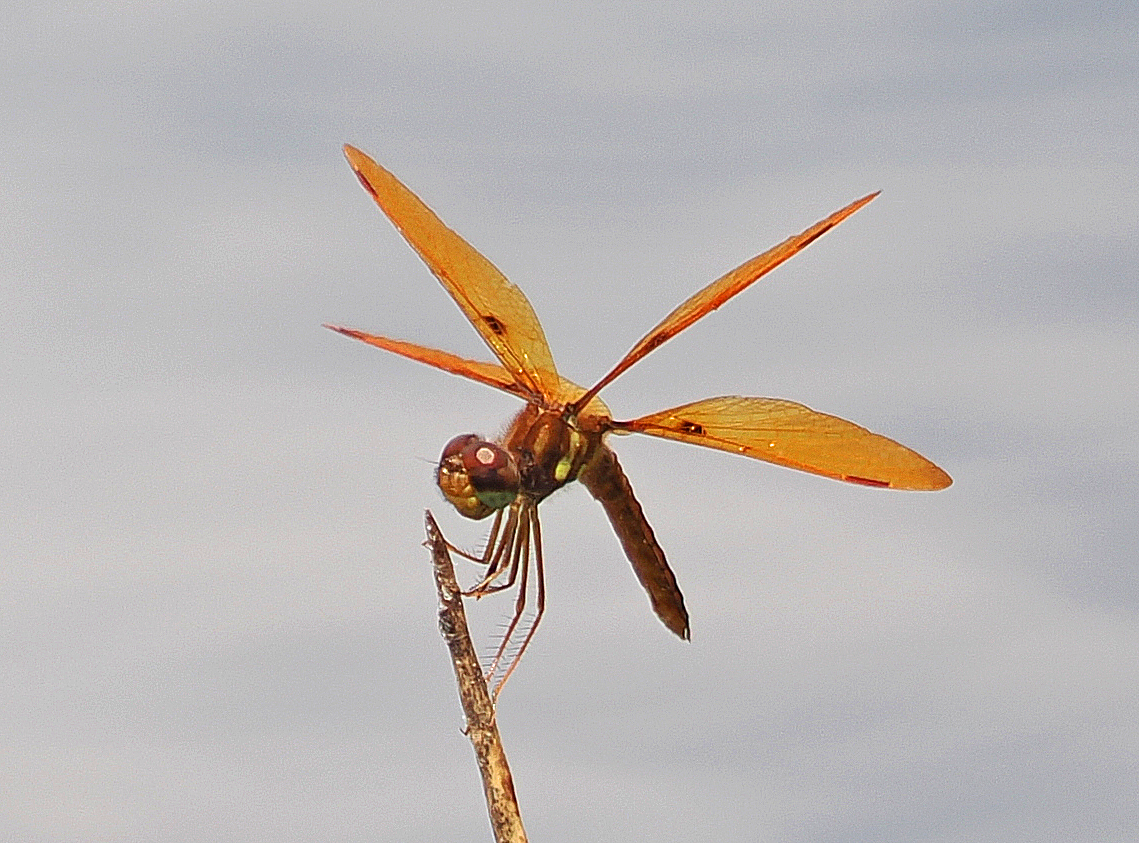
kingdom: Animalia
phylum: Arthropoda
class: Insecta
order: Odonata
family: Libellulidae
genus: Perithemis
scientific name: Perithemis tenera
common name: Eastern amberwing
